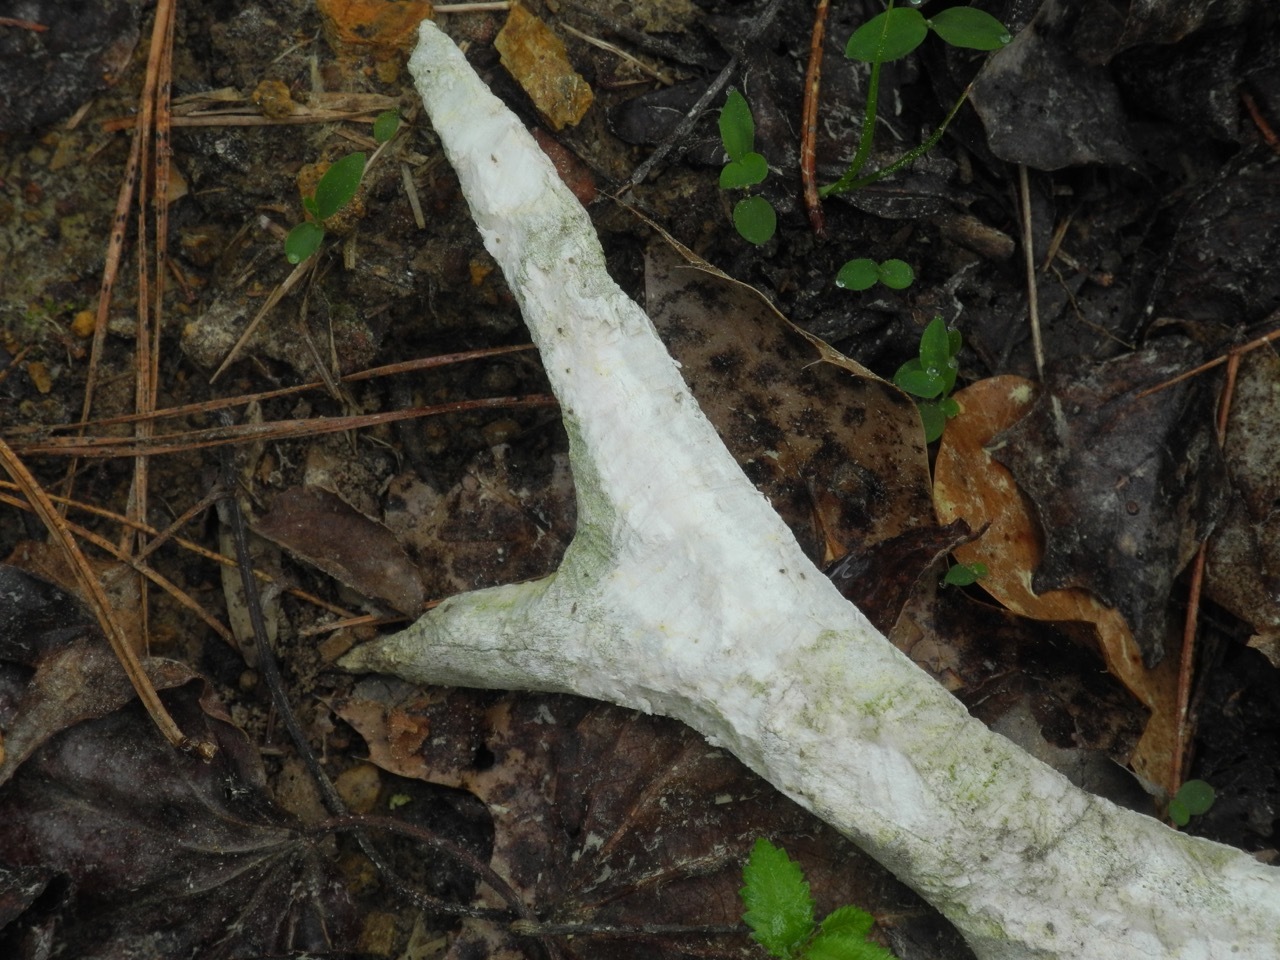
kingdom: Animalia
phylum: Chordata
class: Mammalia
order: Artiodactyla
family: Cervidae
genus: Odocoileus
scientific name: Odocoileus virginianus
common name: White-tailed deer
